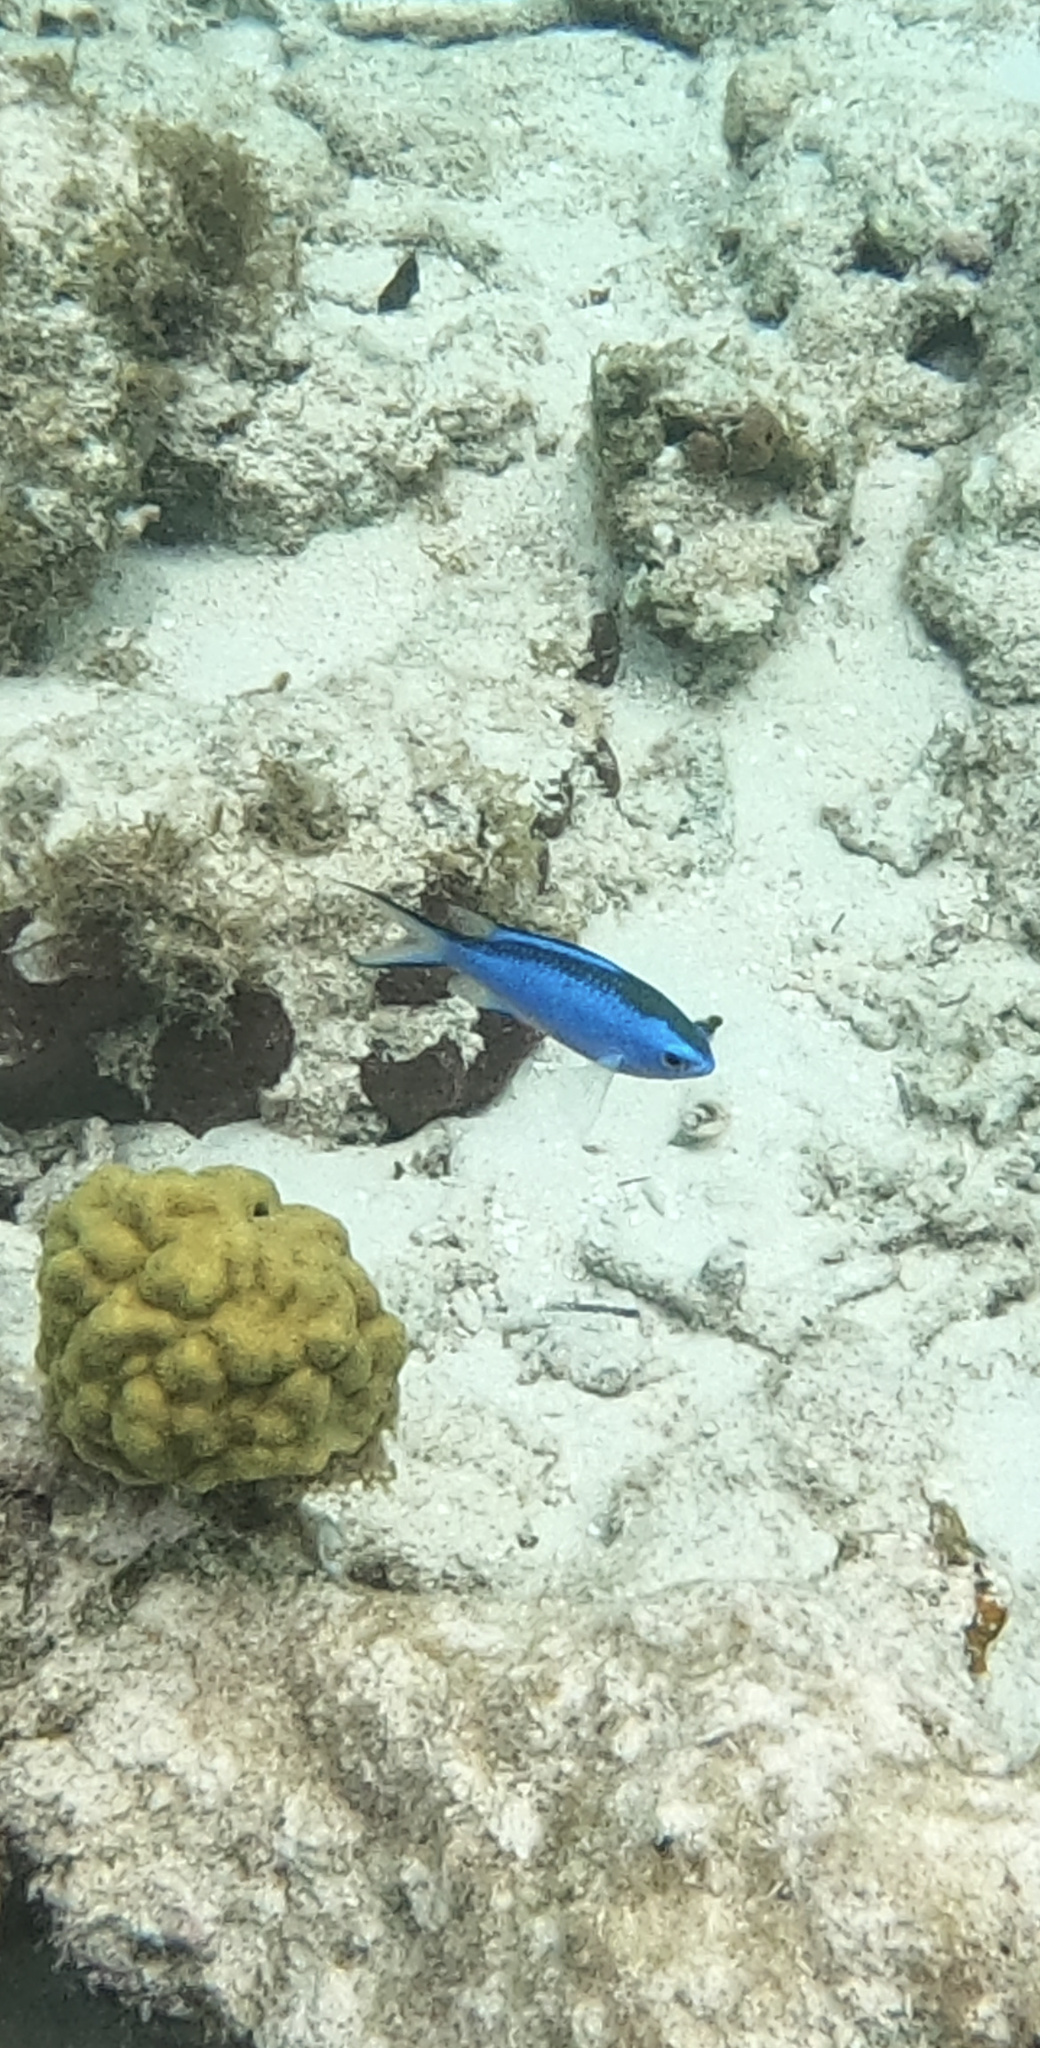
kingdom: Animalia
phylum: Chordata
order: Perciformes
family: Pomacentridae
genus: Chromis
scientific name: Chromis cyanea
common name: Blue chromis
